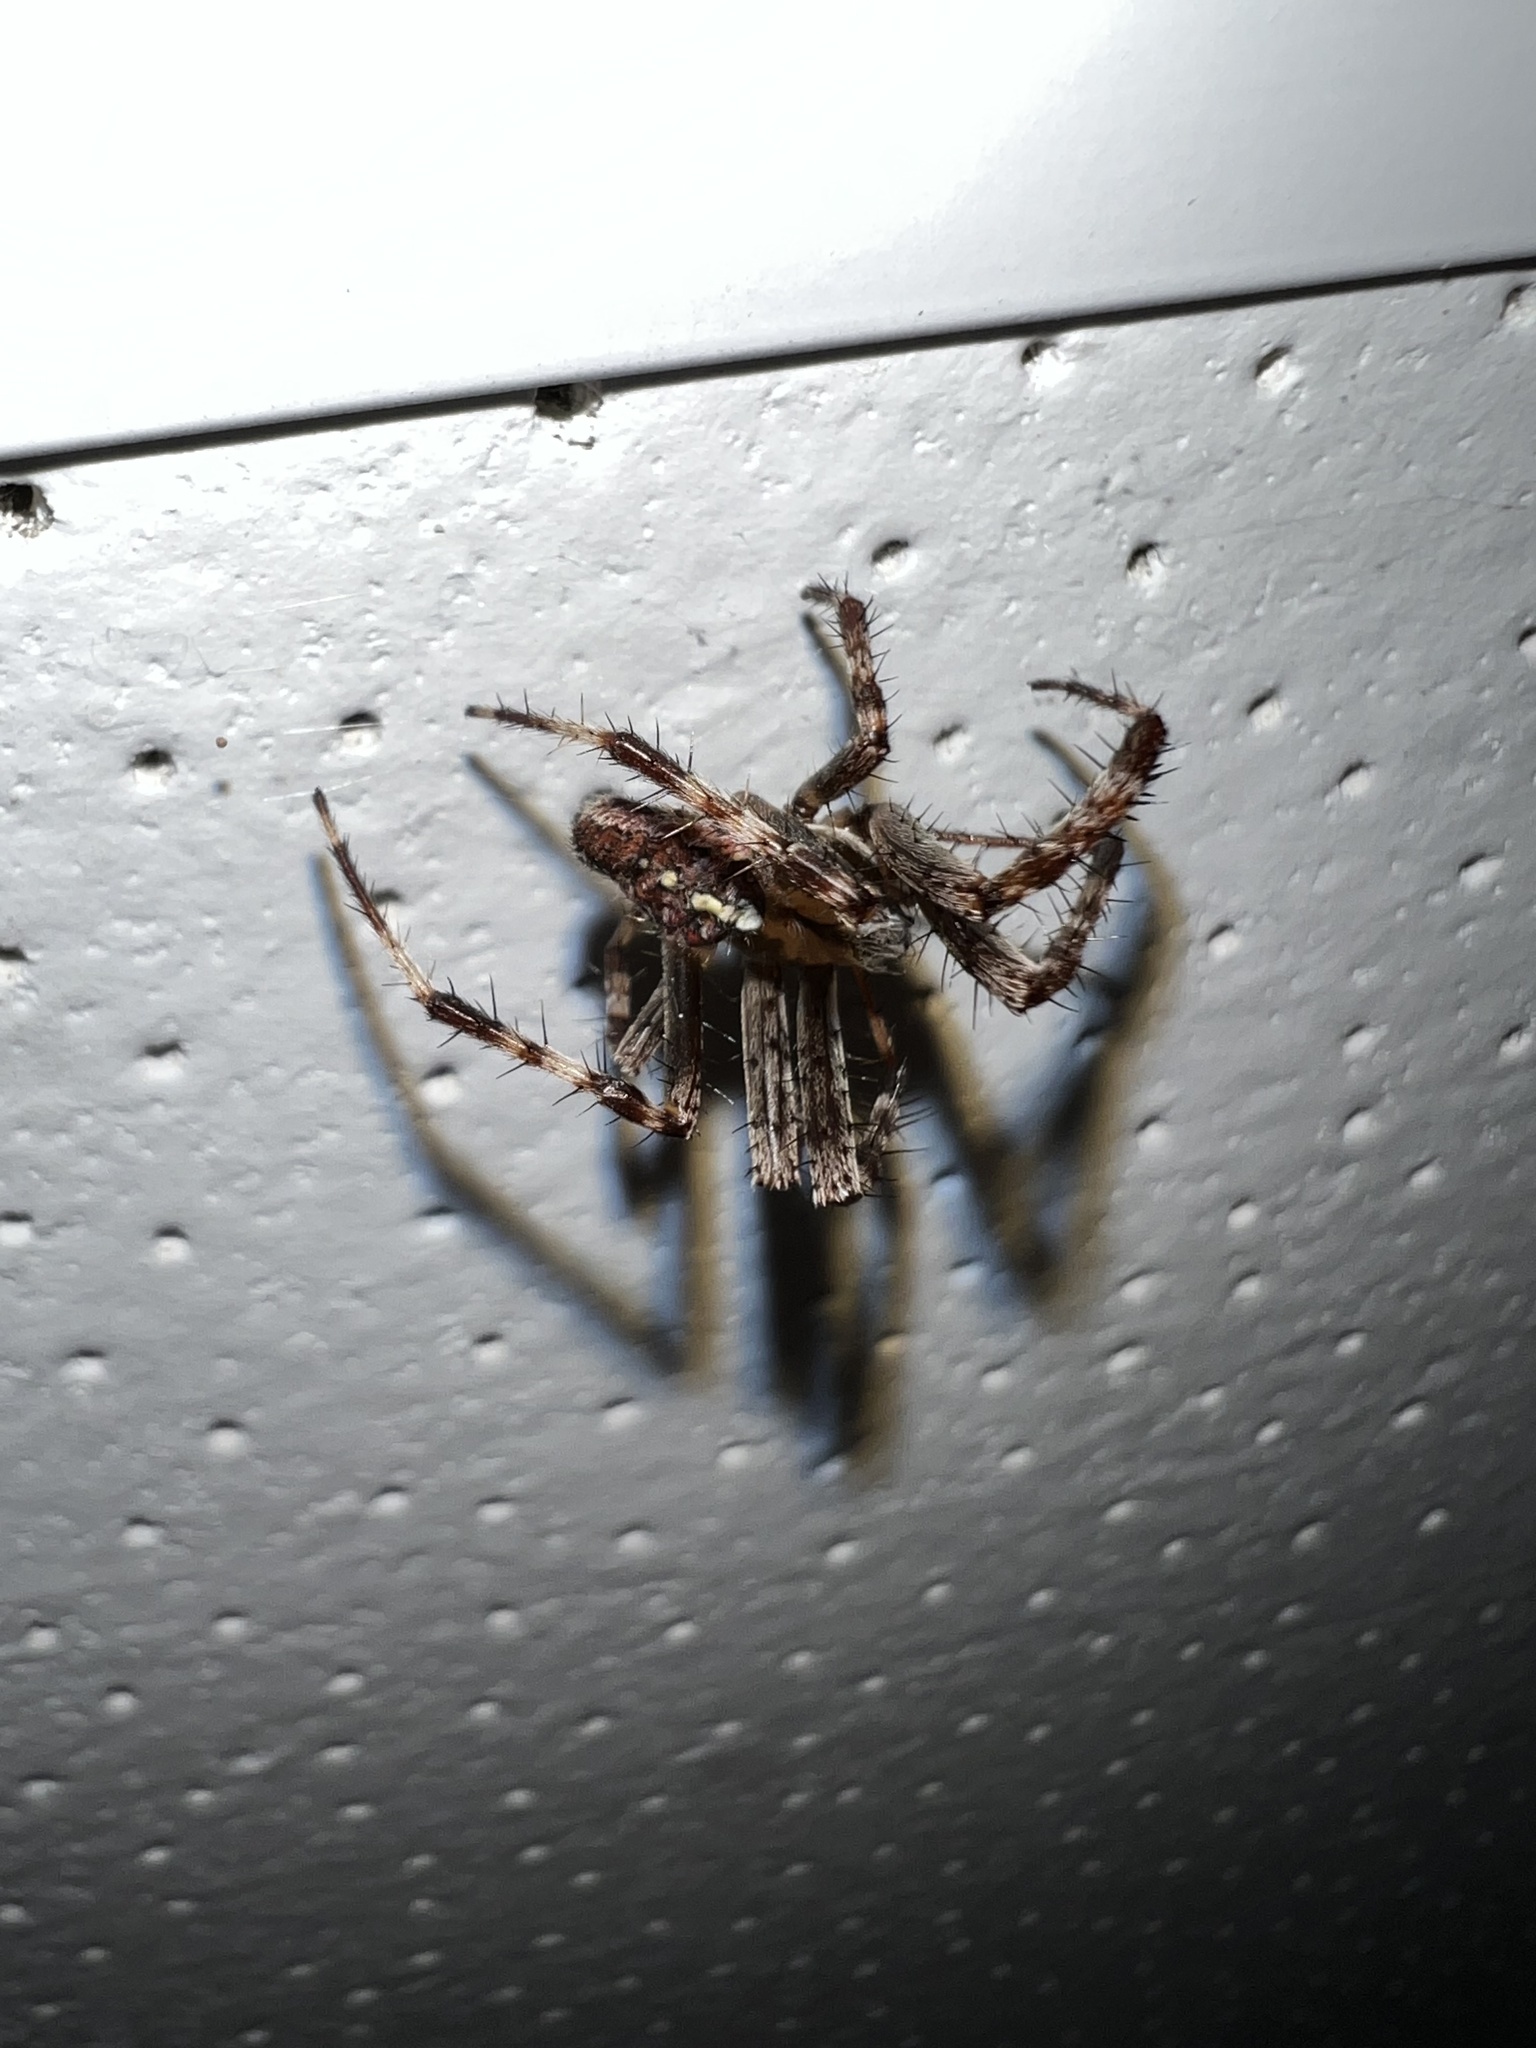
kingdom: Animalia
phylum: Arthropoda
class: Arachnida
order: Araneae
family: Araneidae
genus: Araneus
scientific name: Araneus diadematus
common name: Cross orbweaver
